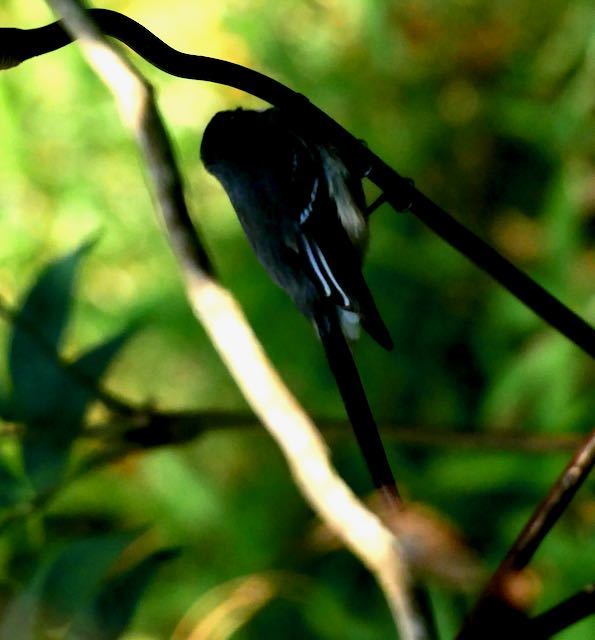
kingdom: Animalia
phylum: Chordata
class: Aves
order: Passeriformes
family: Rhipiduridae
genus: Rhipidura
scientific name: Rhipidura albiscapa
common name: Grey fantail
